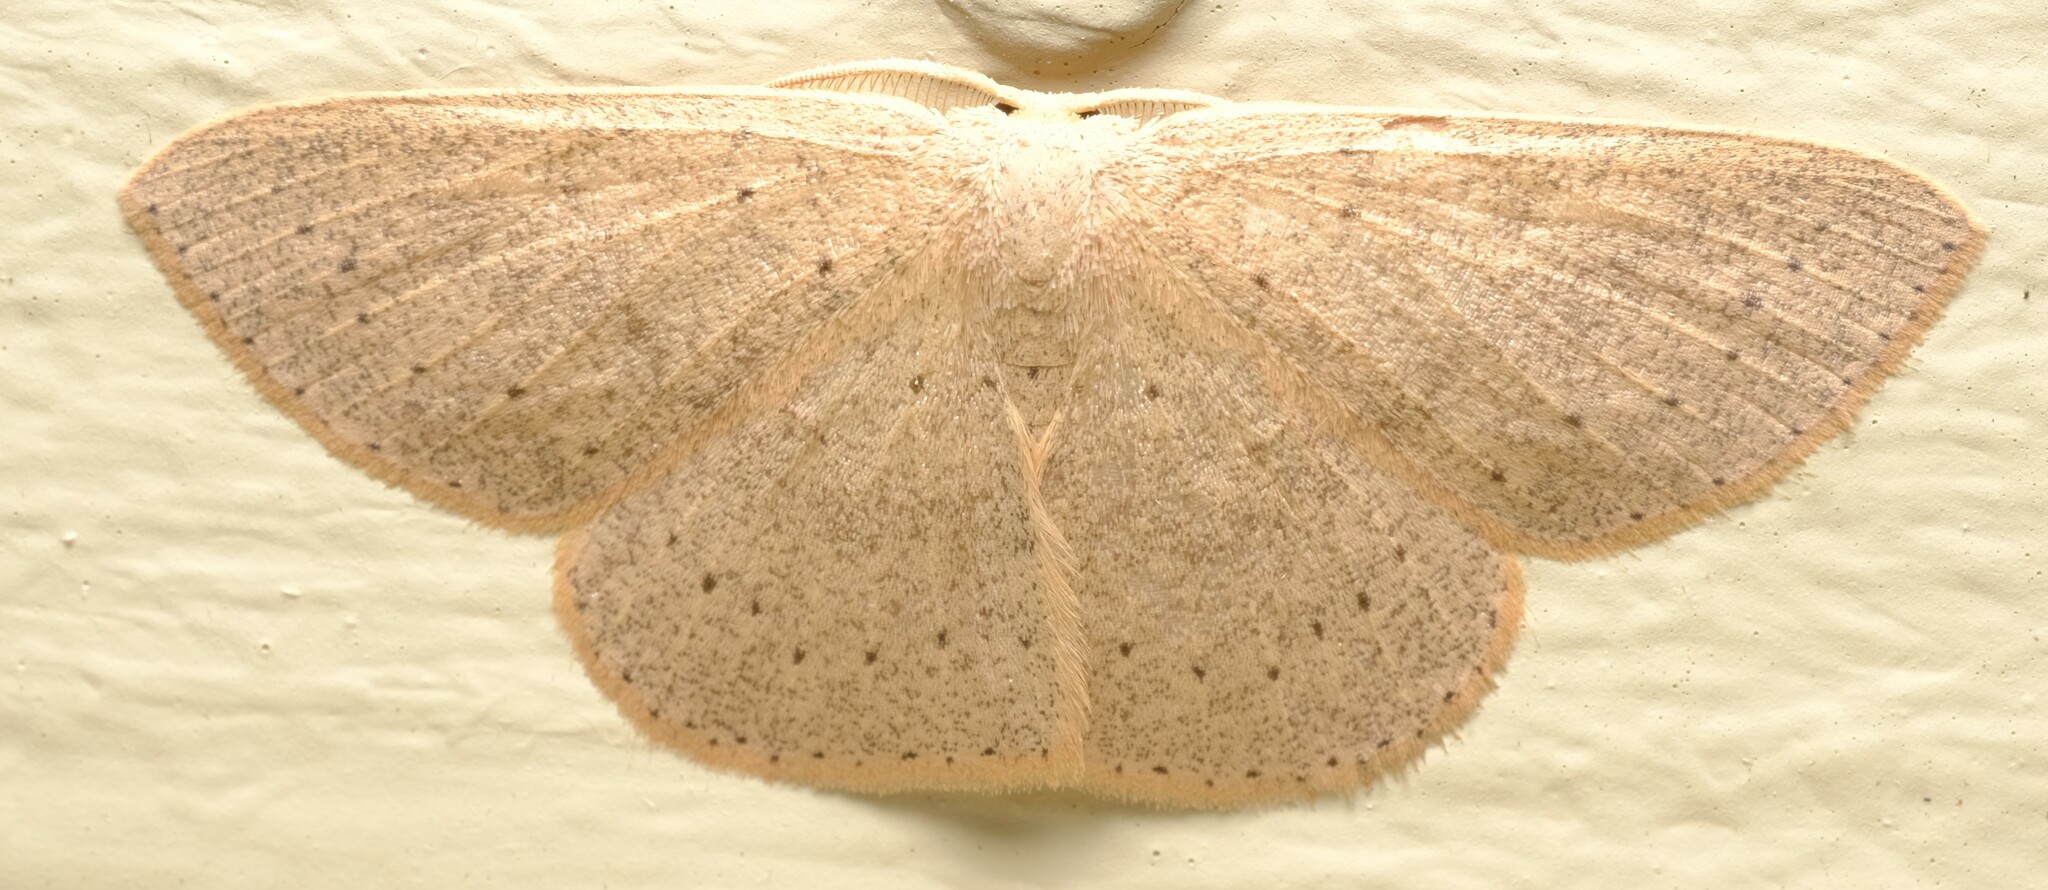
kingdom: Animalia
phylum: Arthropoda
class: Insecta
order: Lepidoptera
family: Geometridae
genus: Cyclophora
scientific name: Cyclophora obstataria
